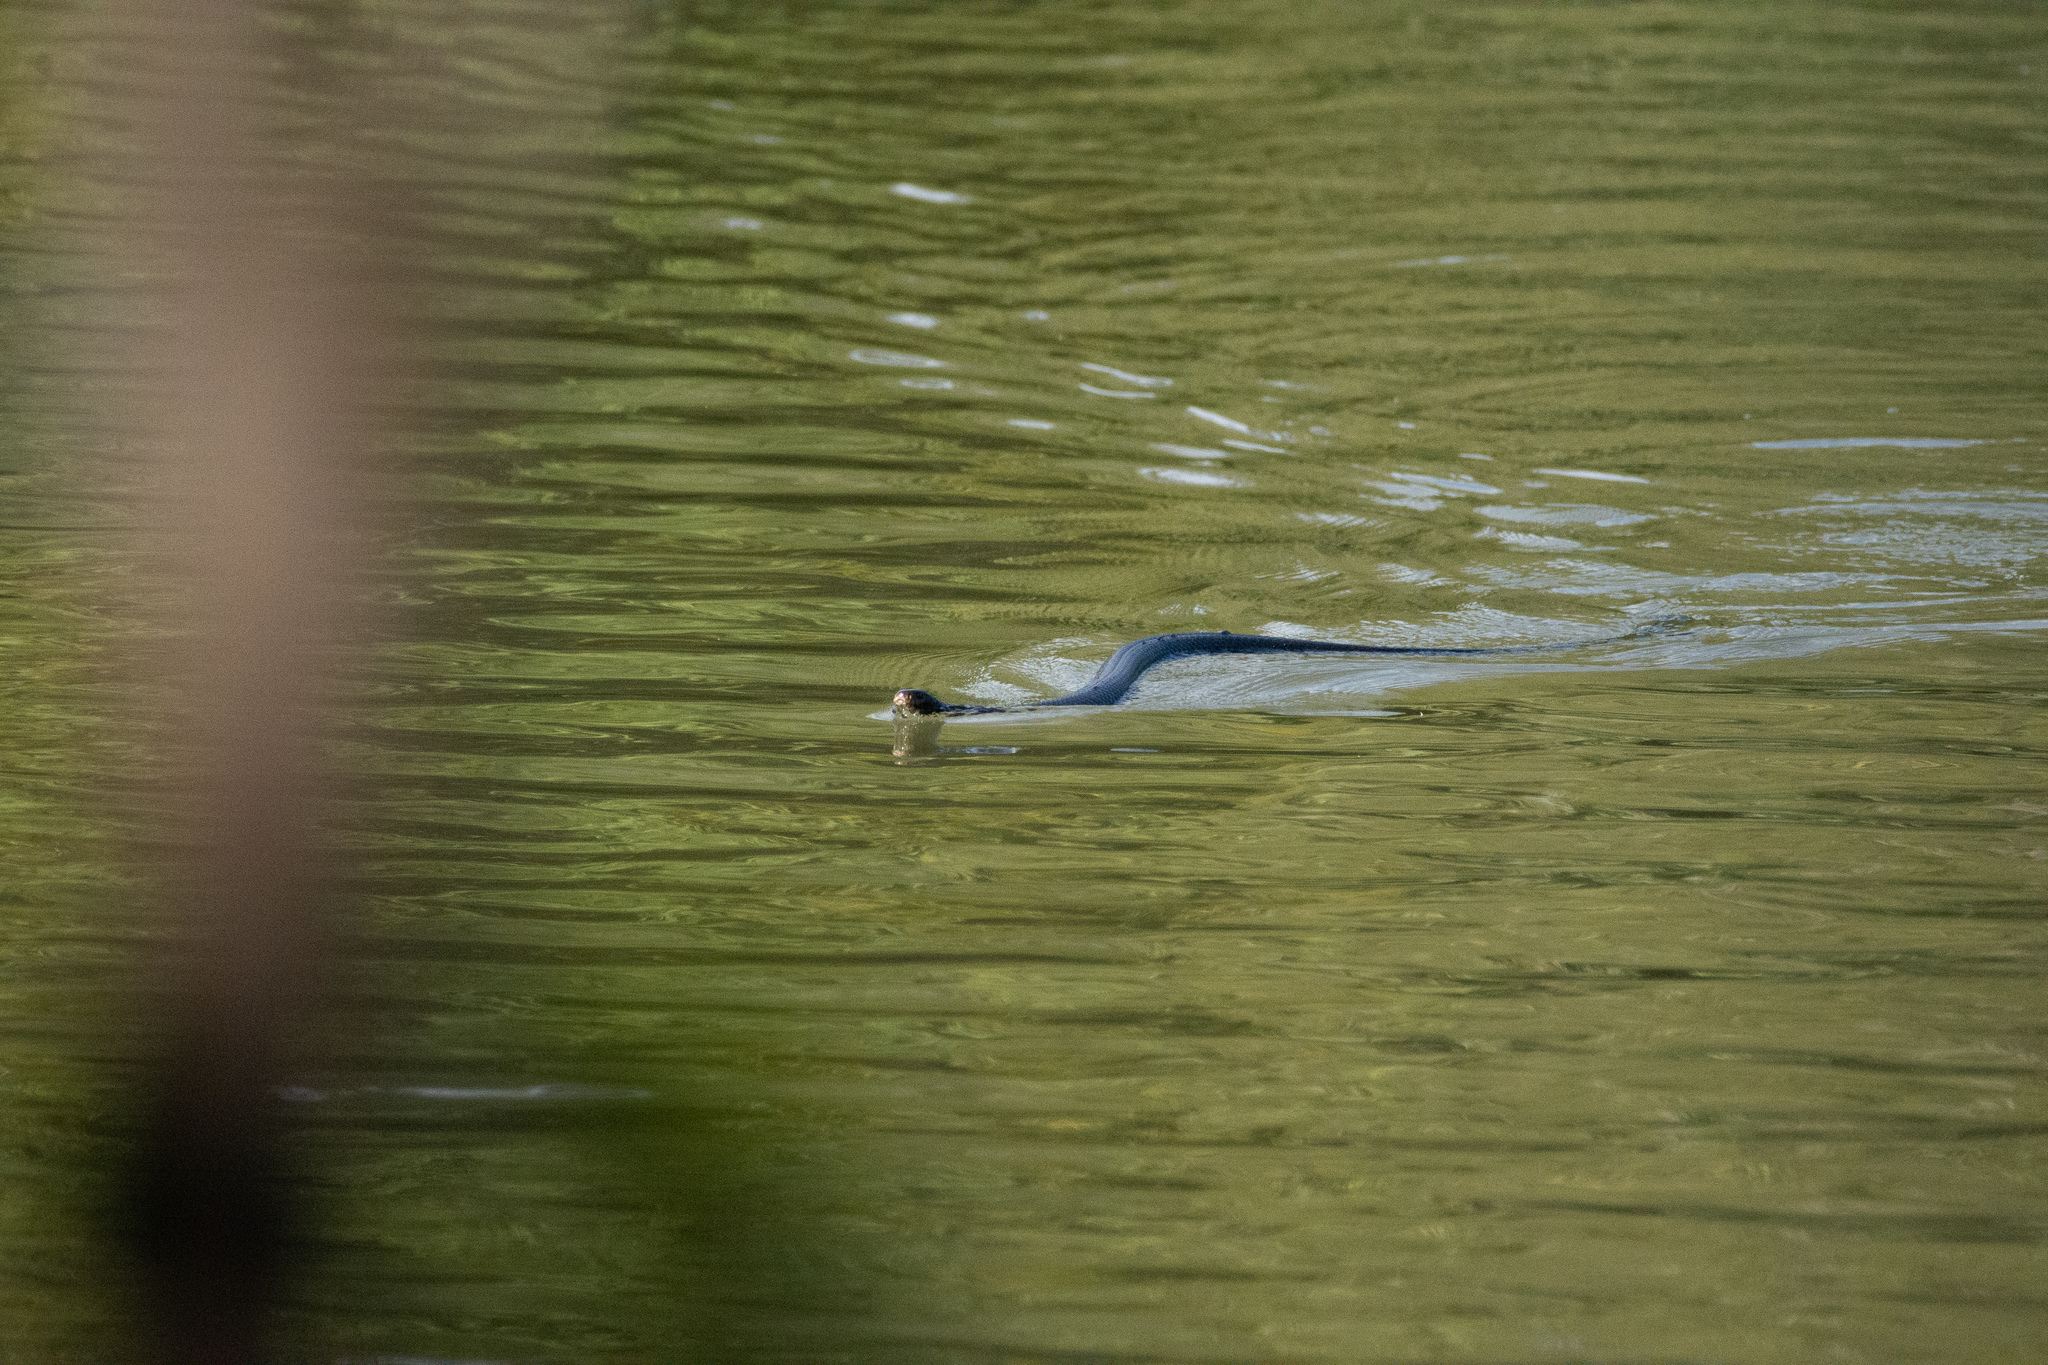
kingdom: Animalia
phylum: Chordata
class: Squamata
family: Elapidae
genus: Pseudechis
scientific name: Pseudechis porphyriacus
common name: Australian black snake
